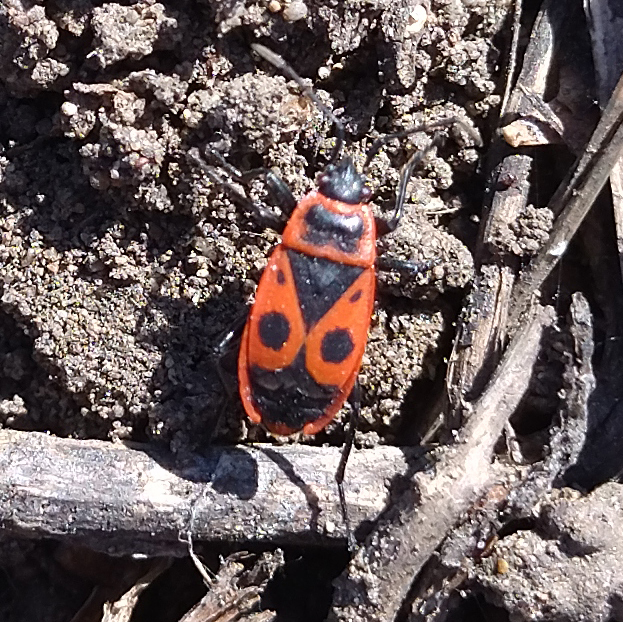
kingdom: Animalia
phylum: Arthropoda
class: Insecta
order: Hemiptera
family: Pyrrhocoridae
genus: Pyrrhocoris
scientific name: Pyrrhocoris apterus
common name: Firebug
